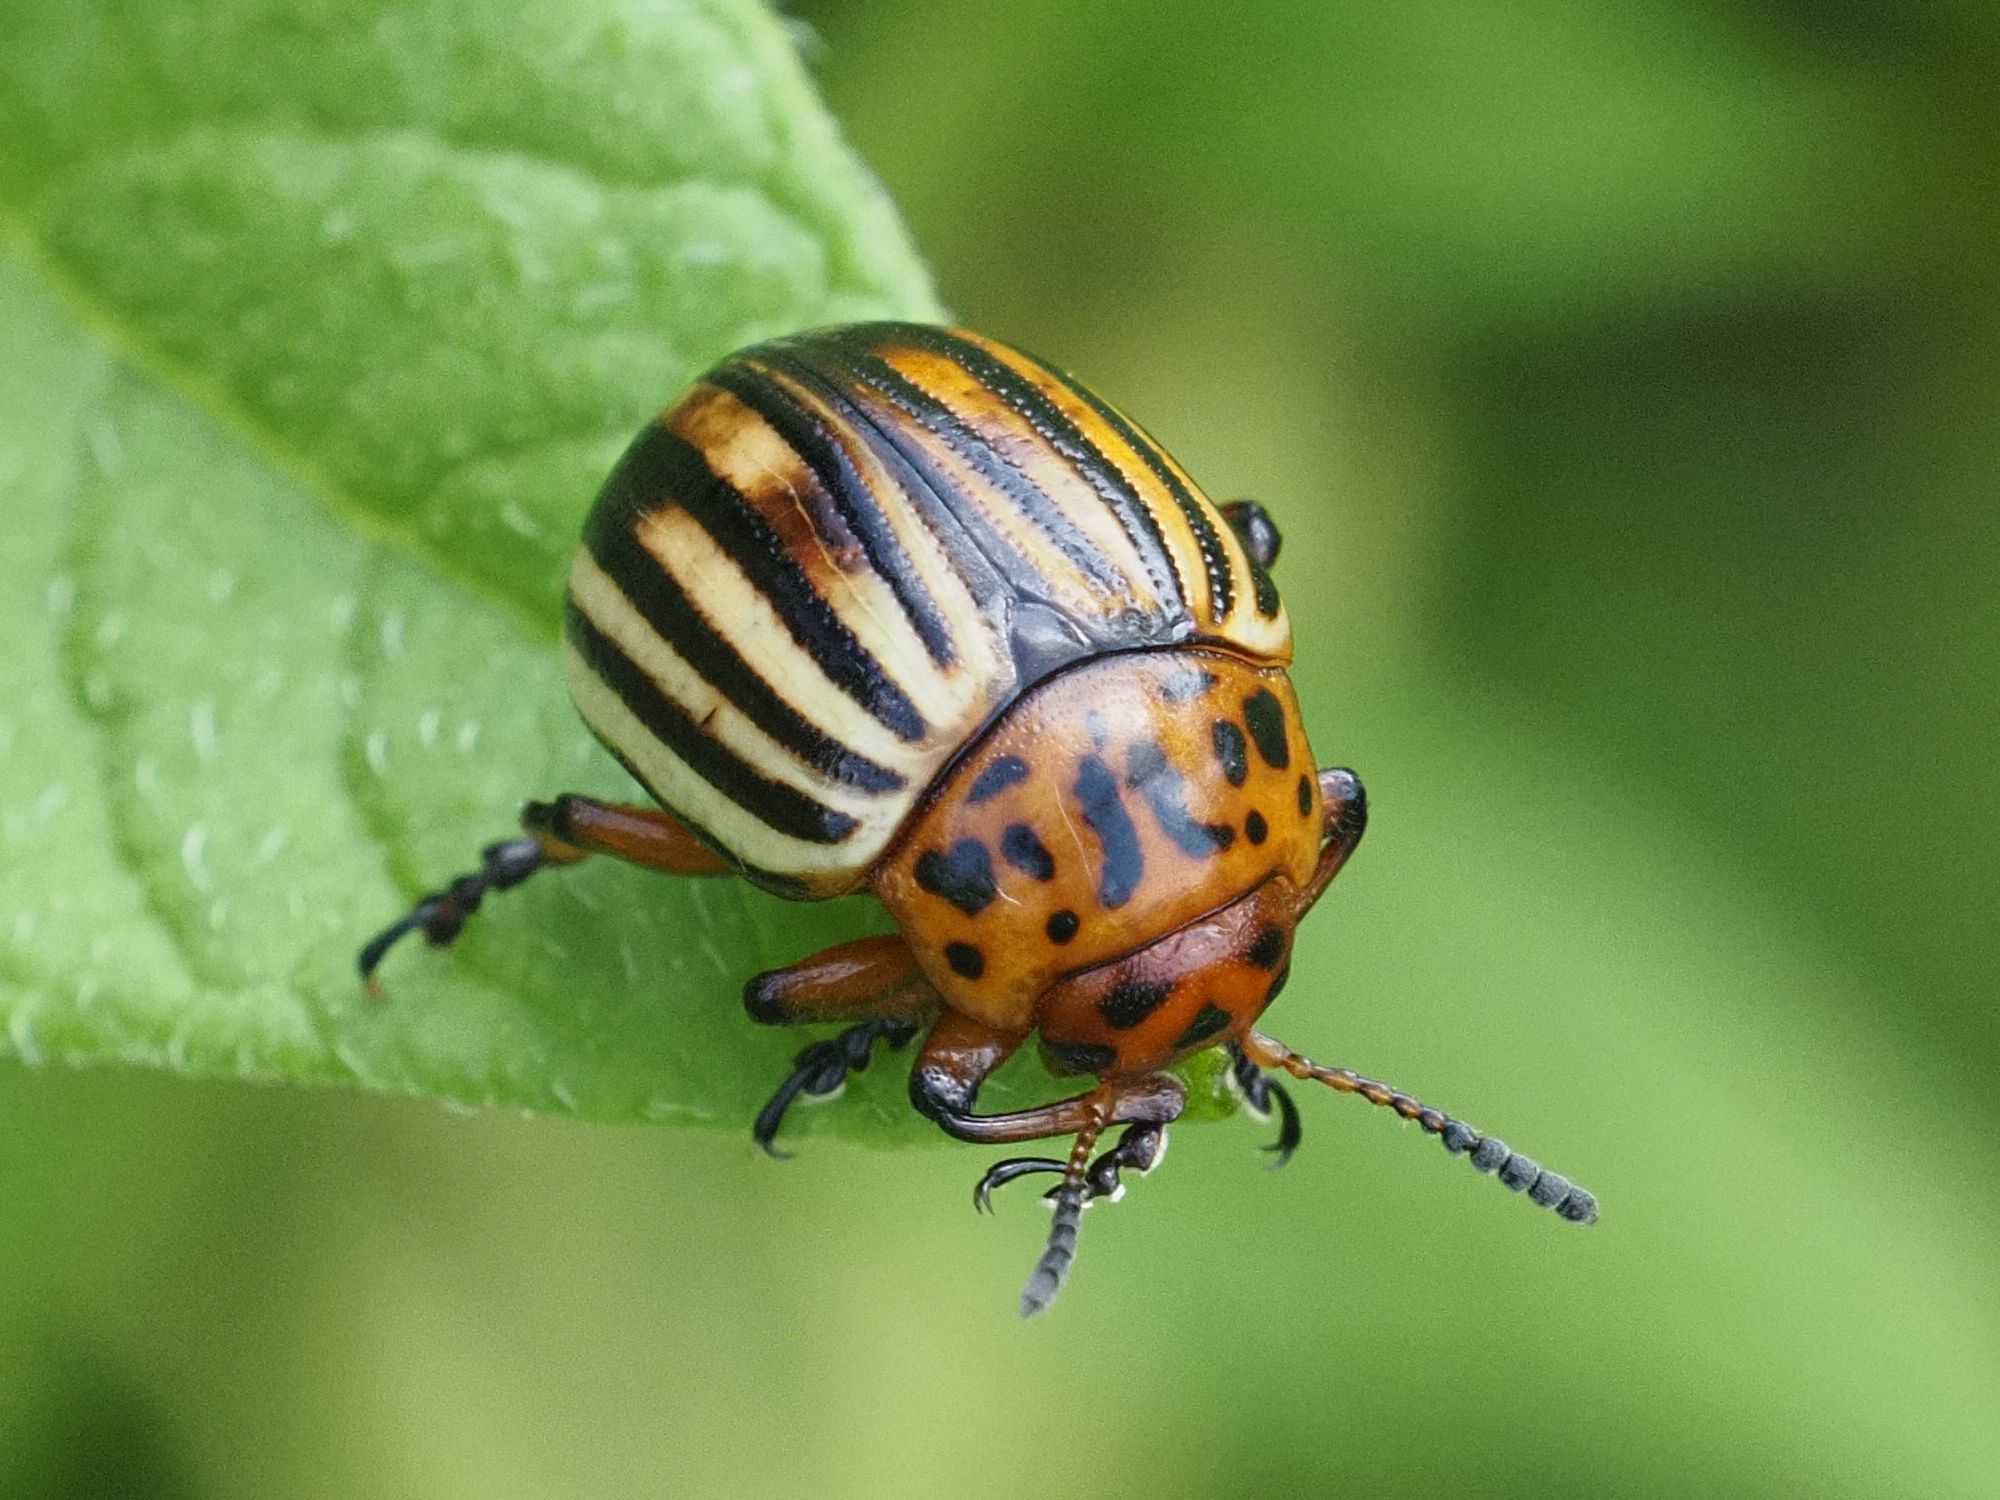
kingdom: Animalia
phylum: Arthropoda
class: Insecta
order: Coleoptera
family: Chrysomelidae
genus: Leptinotarsa
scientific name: Leptinotarsa decemlineata
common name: Colorado potato beetle
